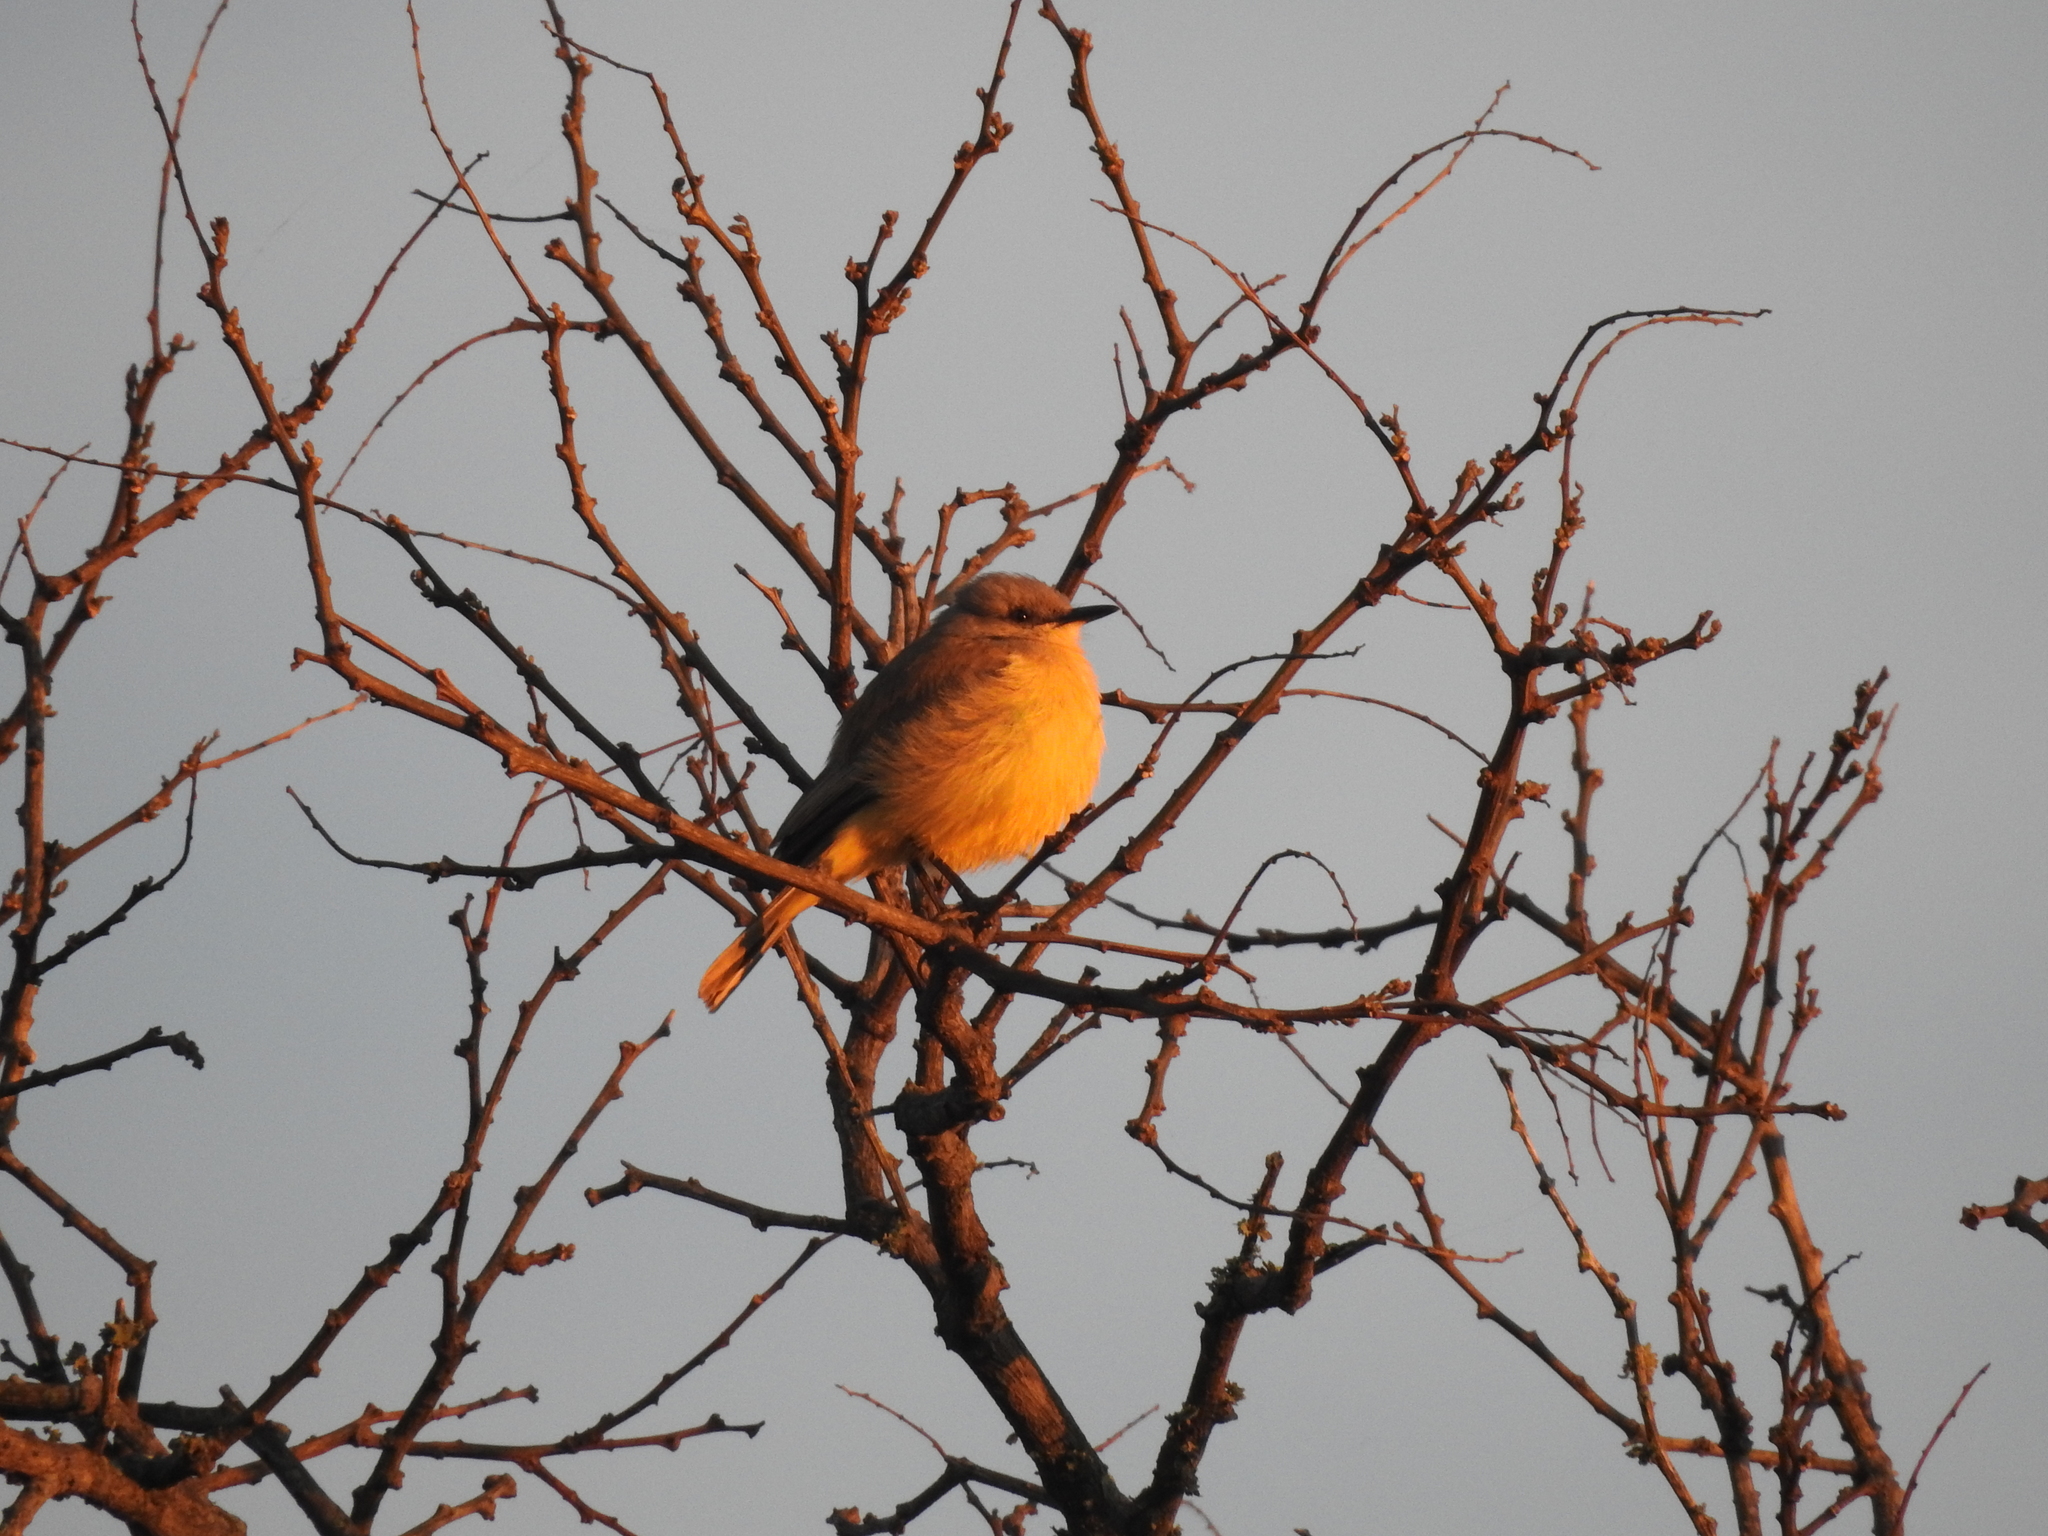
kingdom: Animalia
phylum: Chordata
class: Aves
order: Passeriformes
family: Tyrannidae
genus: Machetornis
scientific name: Machetornis rixosa
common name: Cattle tyrant
